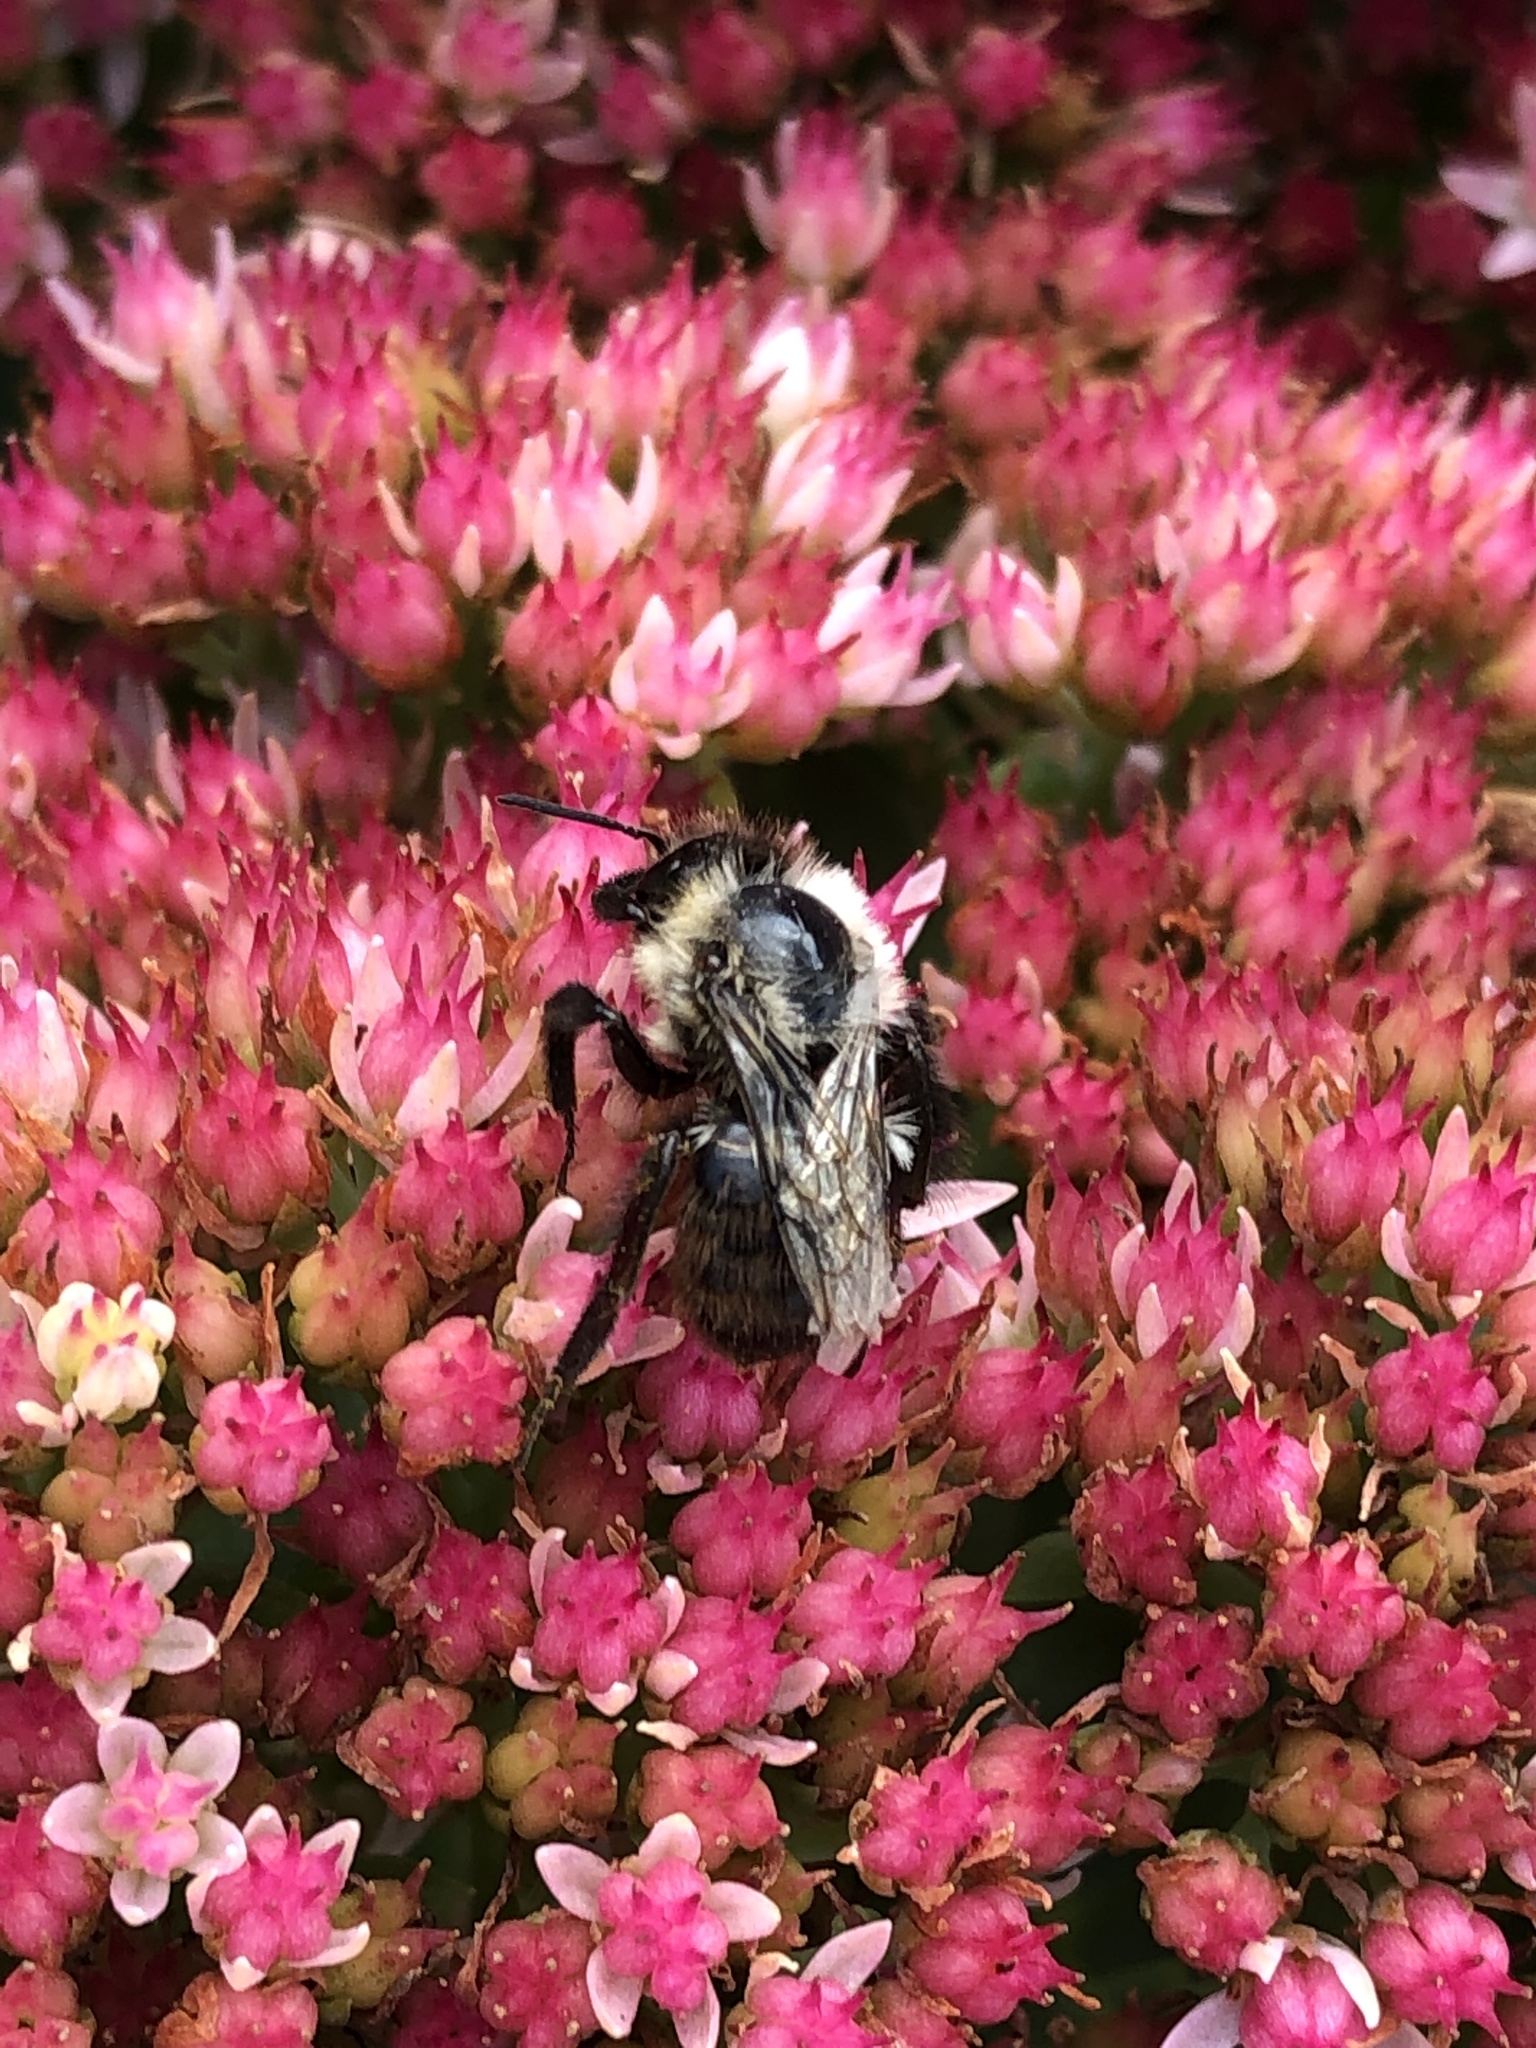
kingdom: Animalia
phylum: Arthropoda
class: Insecta
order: Hymenoptera
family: Apidae
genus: Bombus
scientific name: Bombus impatiens
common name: Common eastern bumble bee
